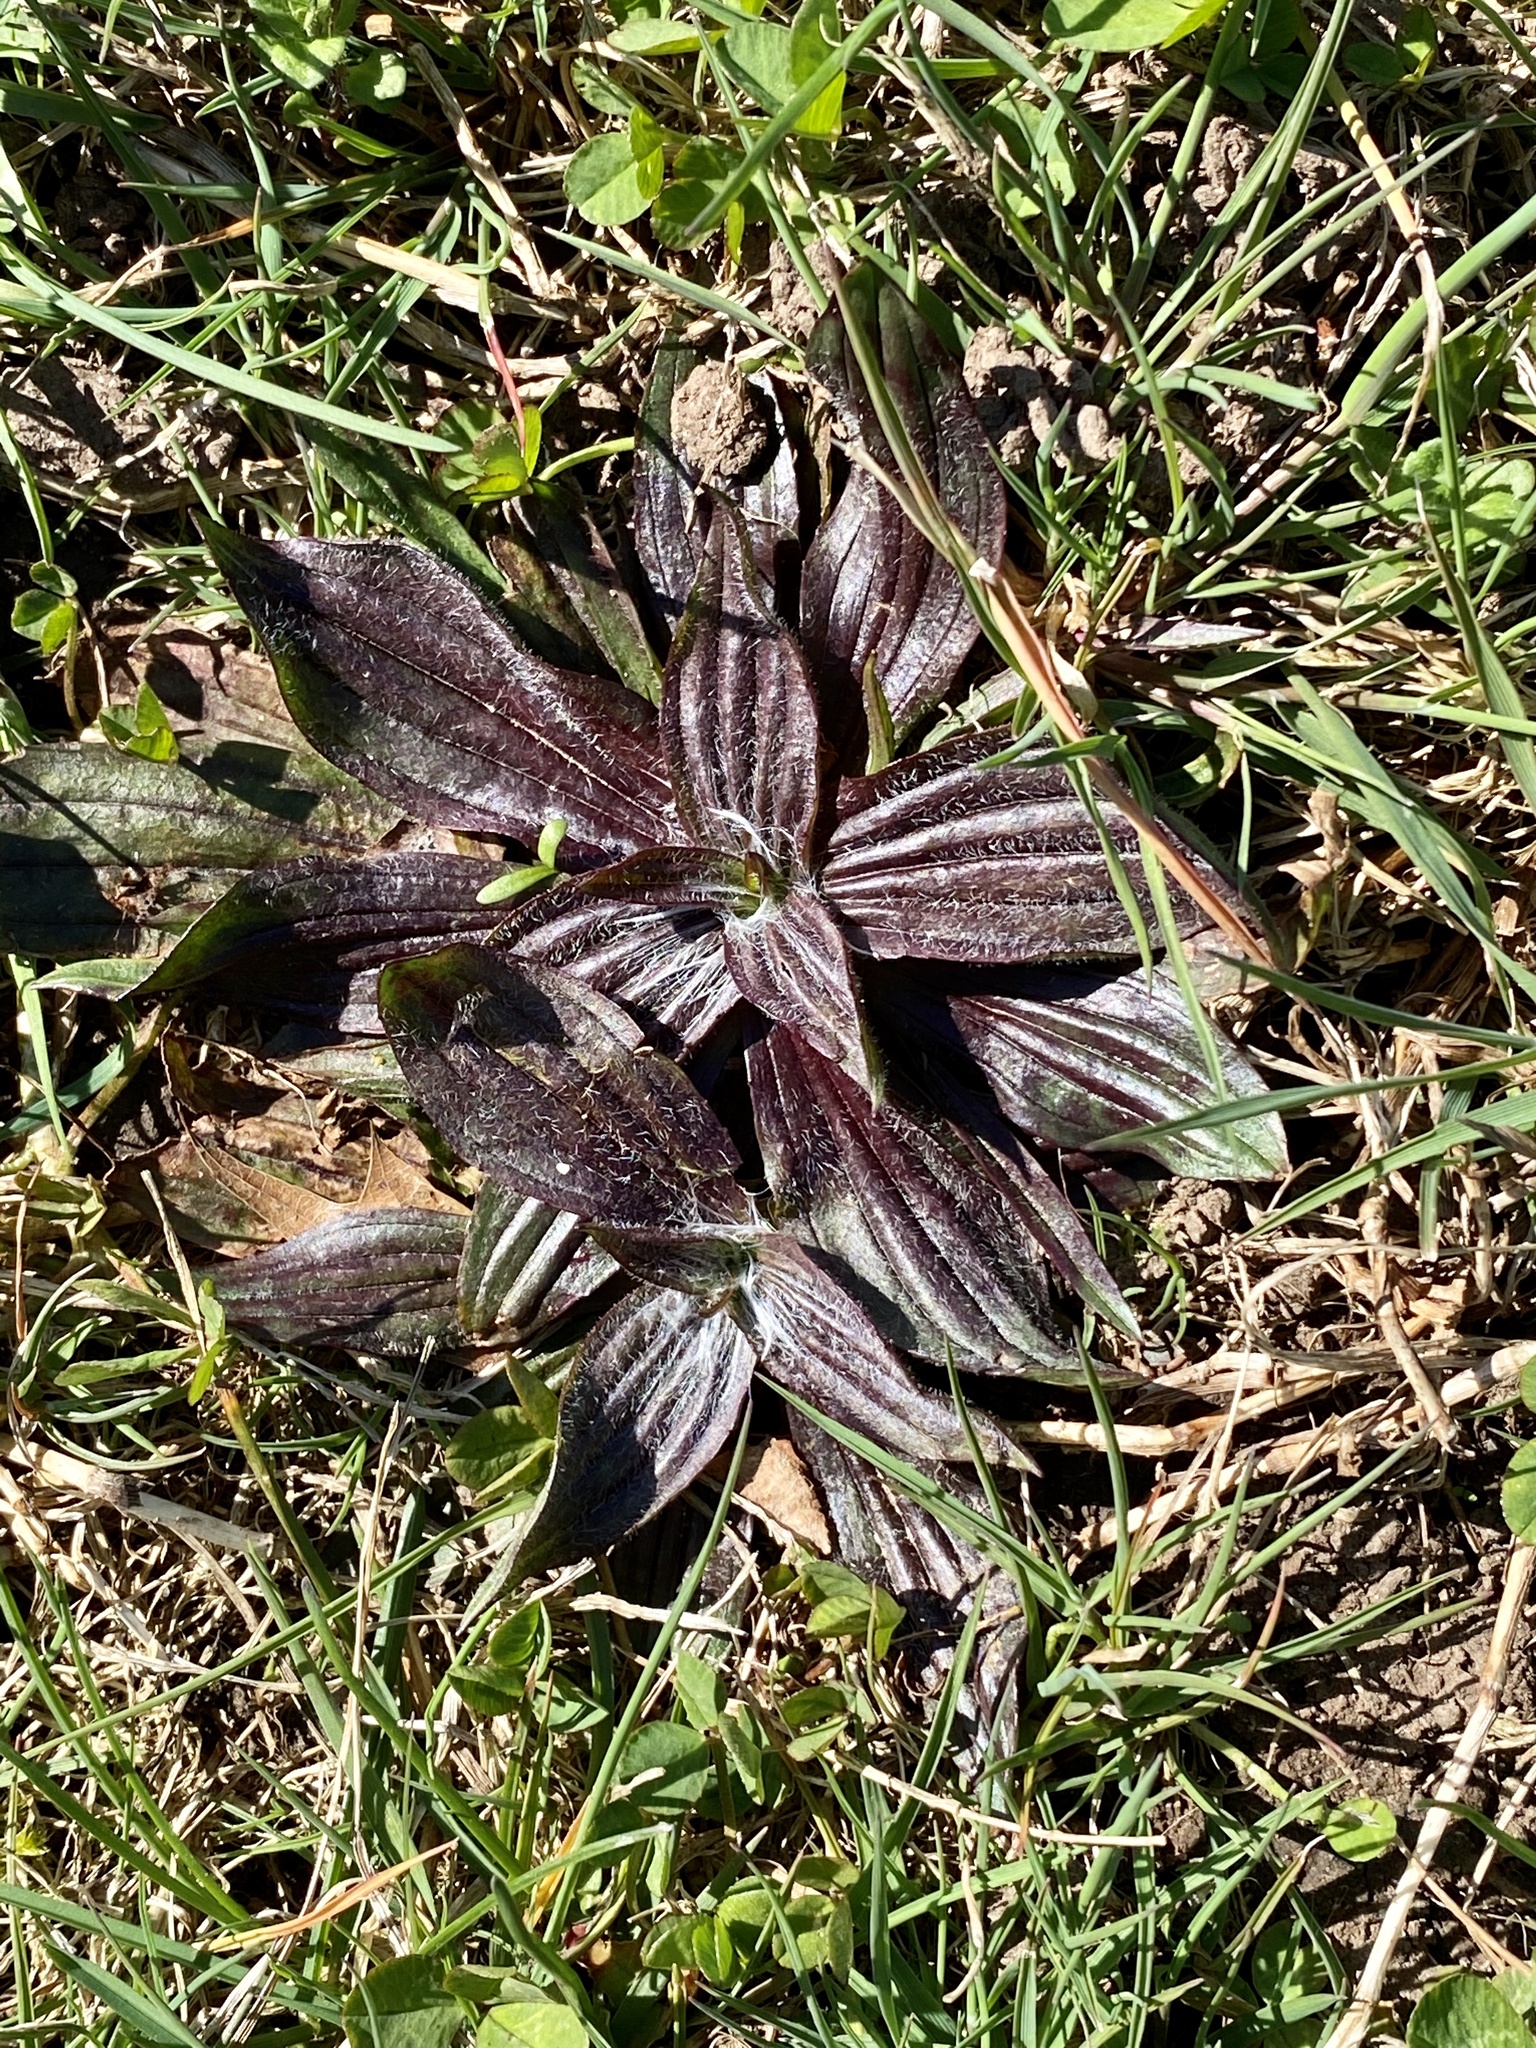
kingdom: Plantae
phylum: Tracheophyta
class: Magnoliopsida
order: Lamiales
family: Plantaginaceae
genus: Plantago
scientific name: Plantago lanceolata
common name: Ribwort plantain
